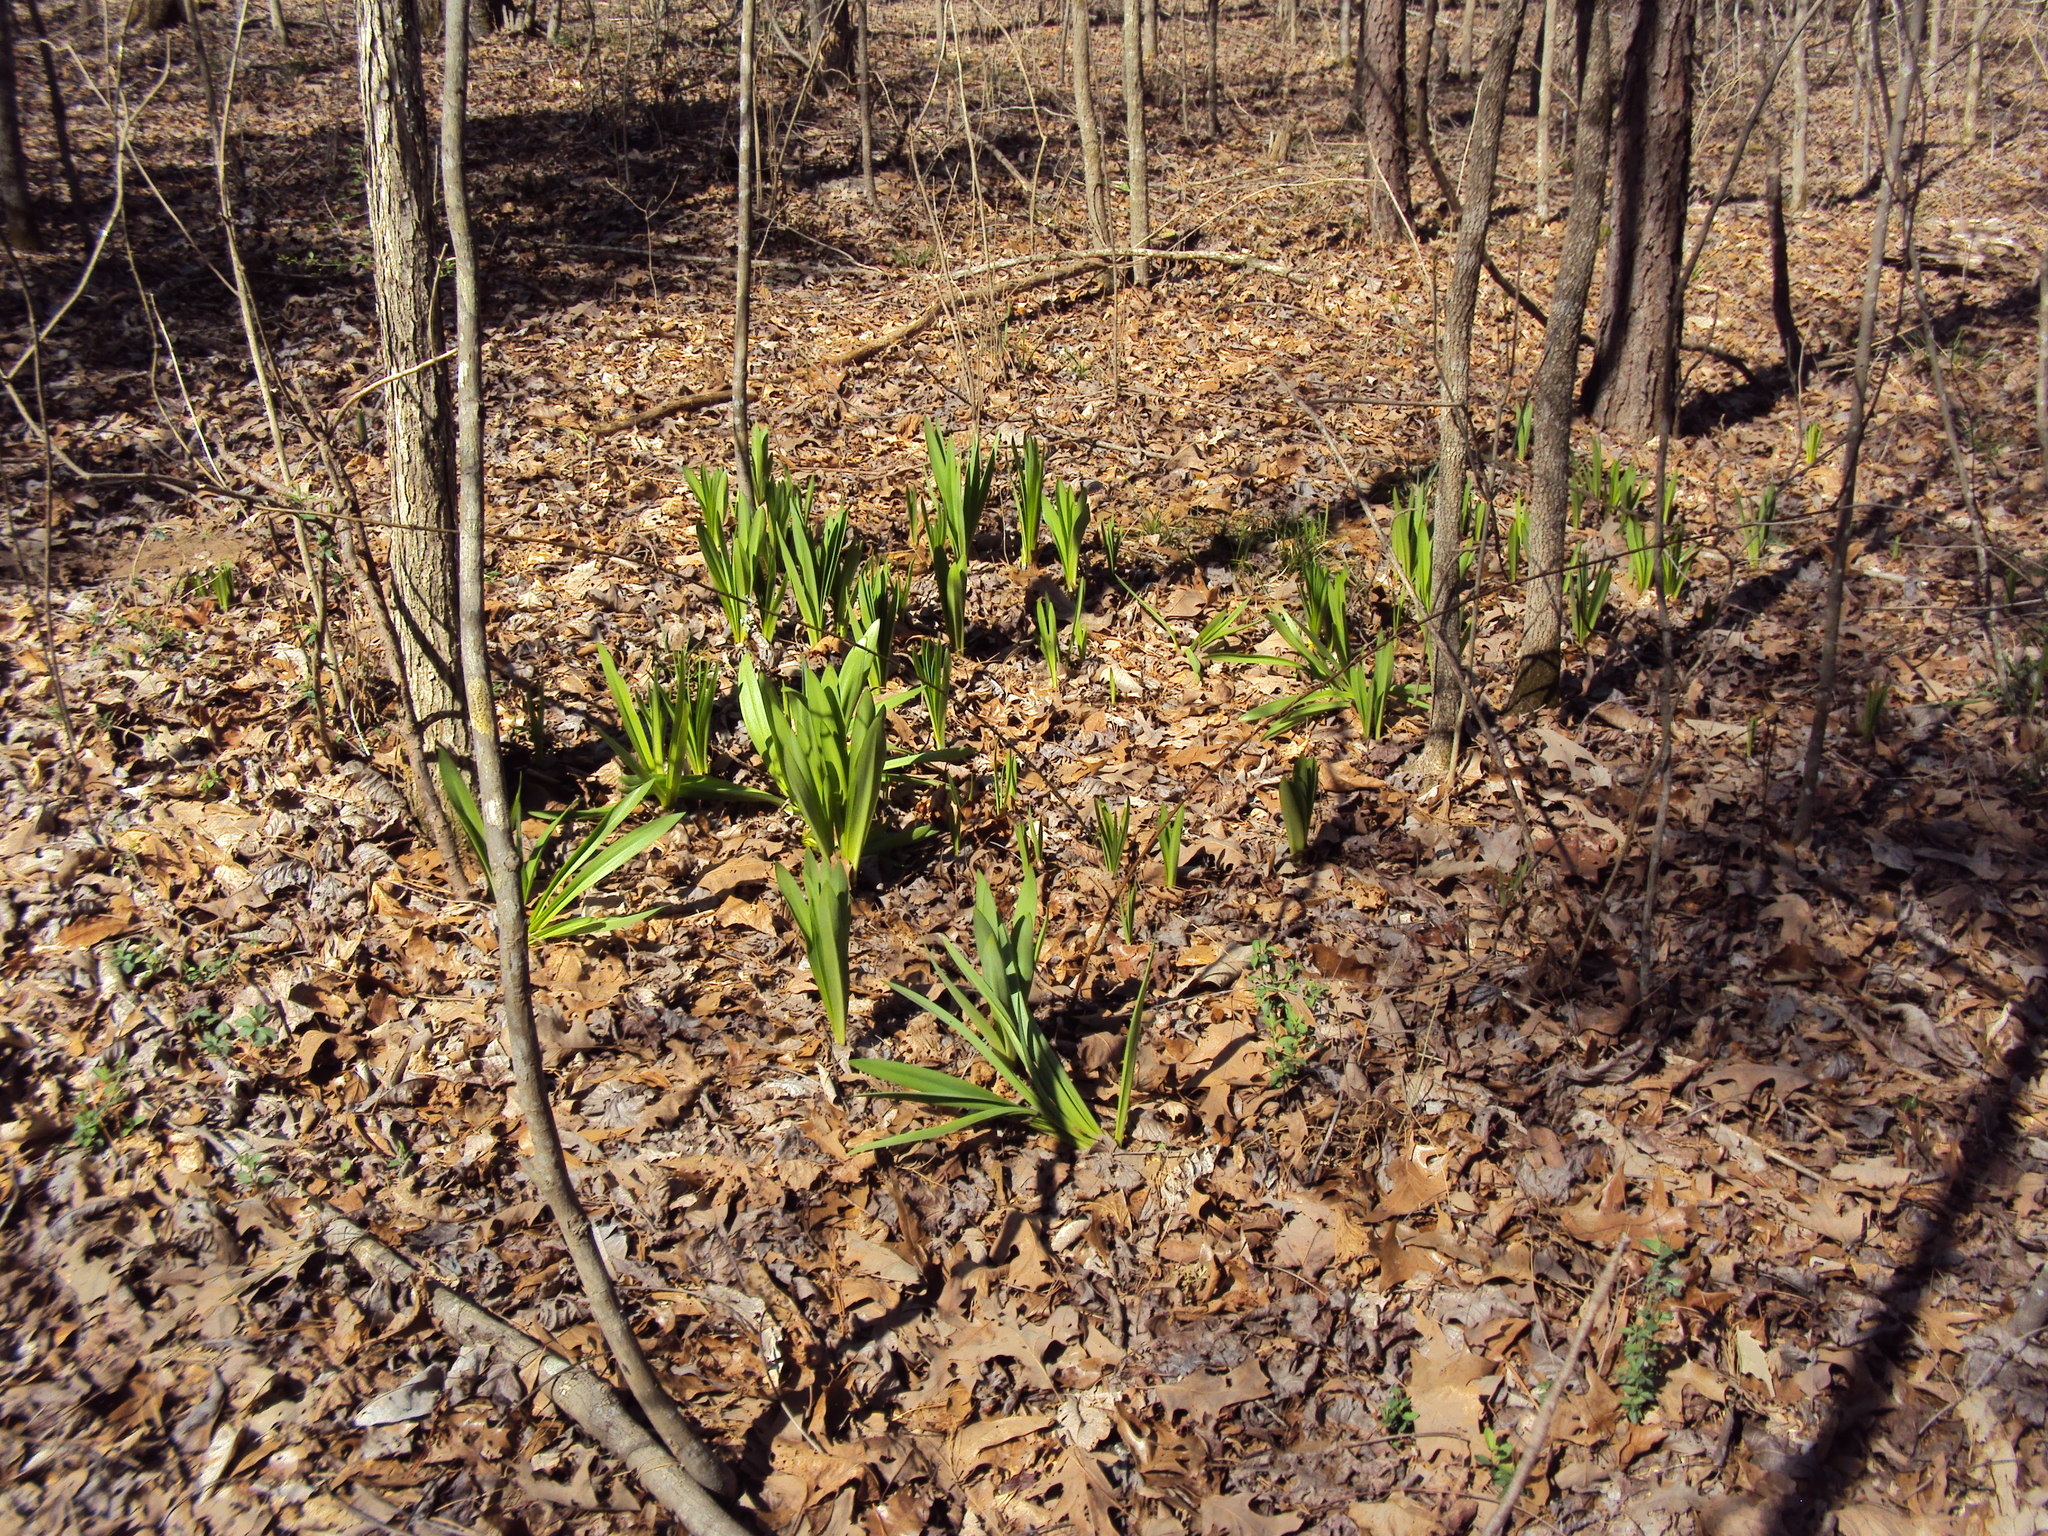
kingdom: Plantae
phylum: Tracheophyta
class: Liliopsida
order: Asparagales
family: Amaryllidaceae
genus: Hymenocallis
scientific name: Hymenocallis occidentalis
